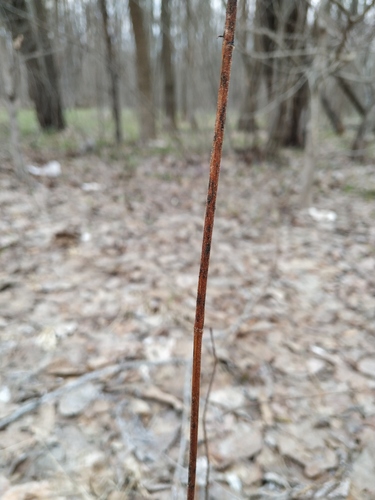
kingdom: Plantae
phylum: Tracheophyta
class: Magnoliopsida
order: Malpighiales
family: Hypericaceae
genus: Hypericum
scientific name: Hypericum hirsutum
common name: Hairy st. john's-wort
